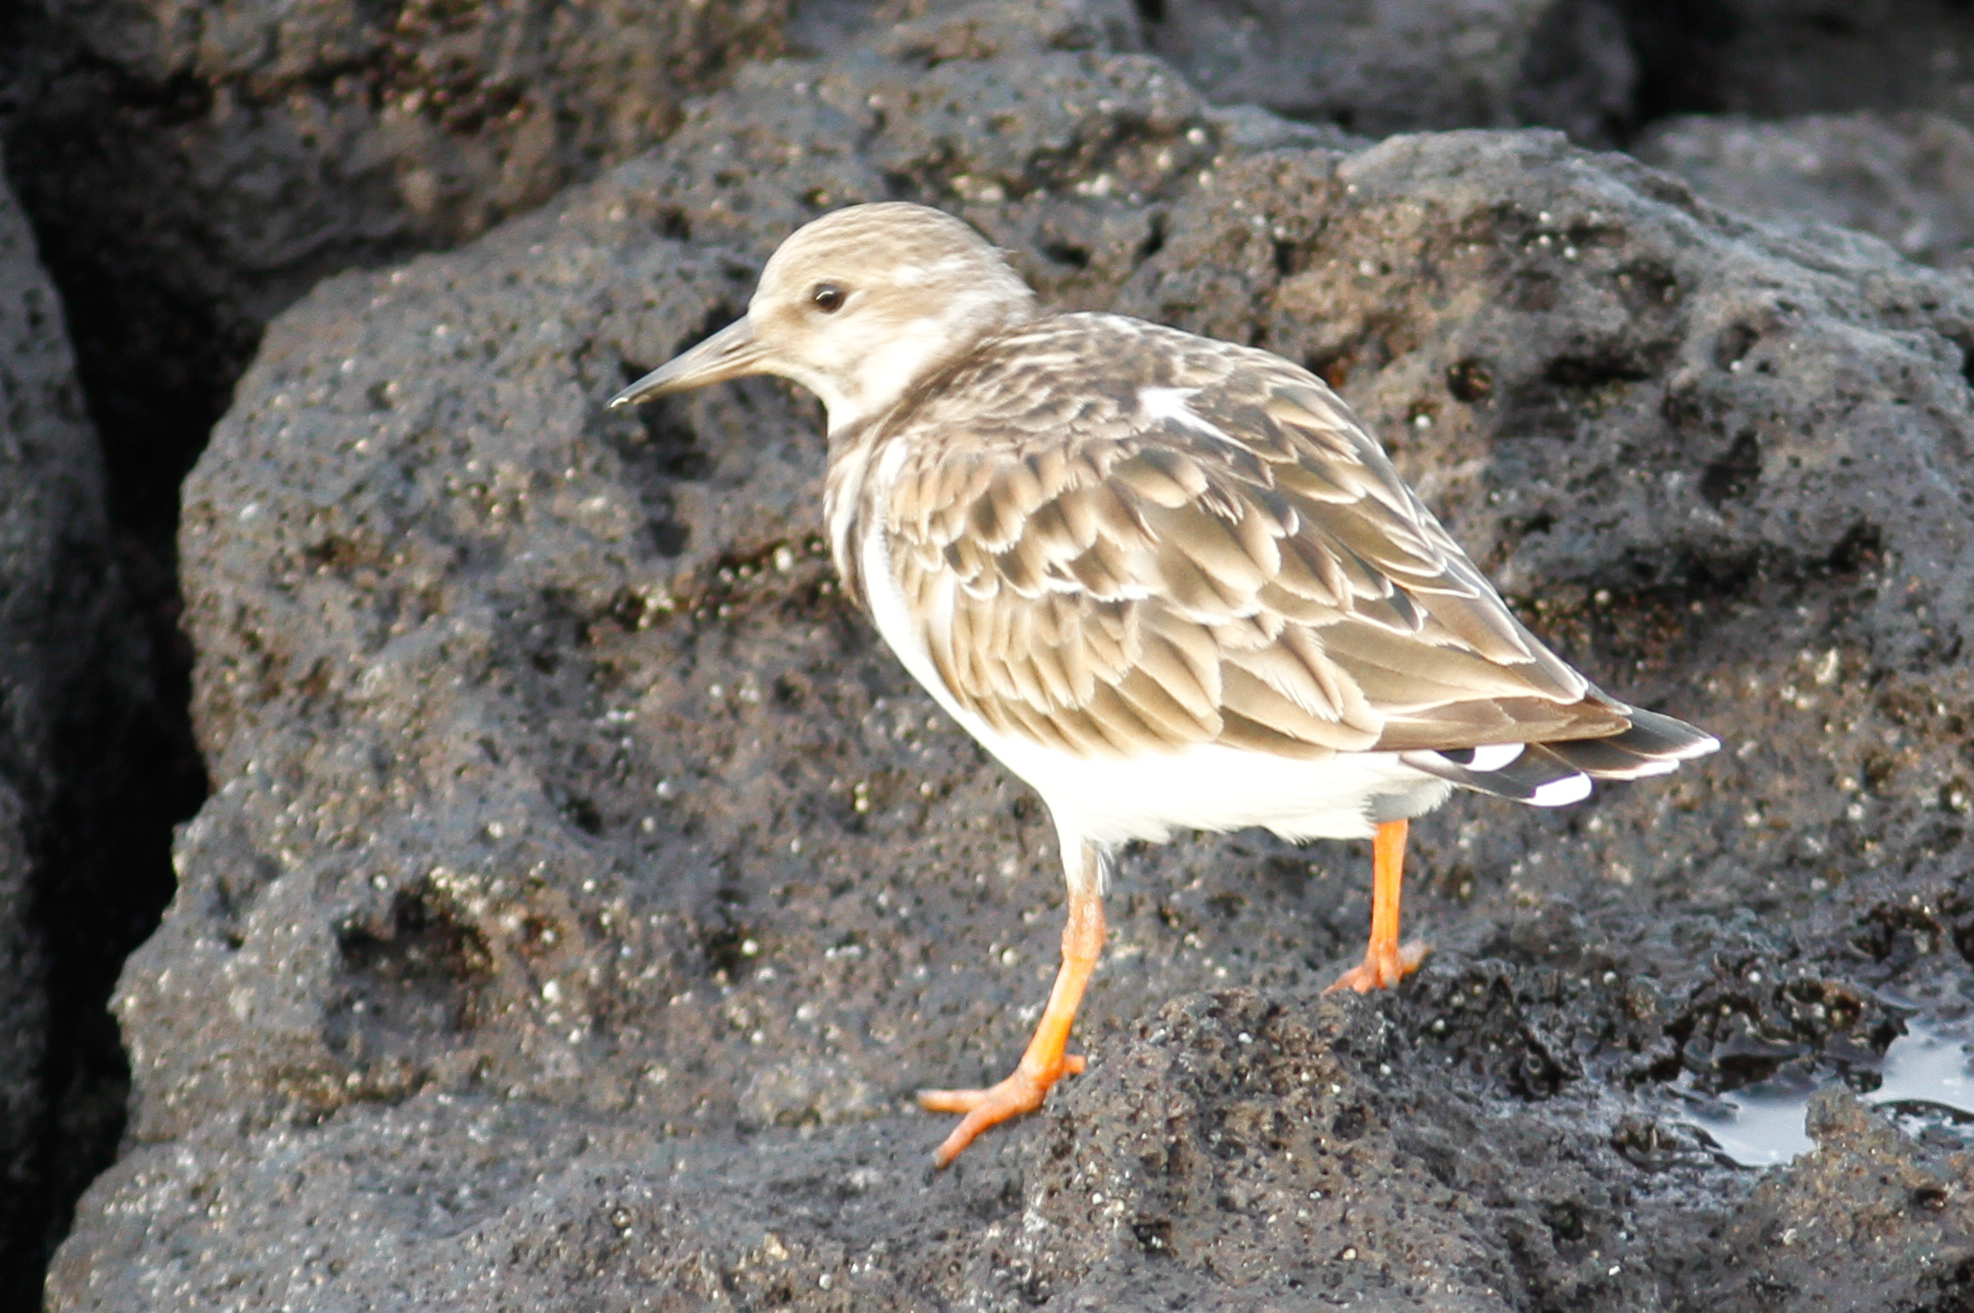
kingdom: Animalia
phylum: Chordata
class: Aves
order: Charadriiformes
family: Scolopacidae
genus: Arenaria
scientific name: Arenaria interpres
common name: Ruddy turnstone
